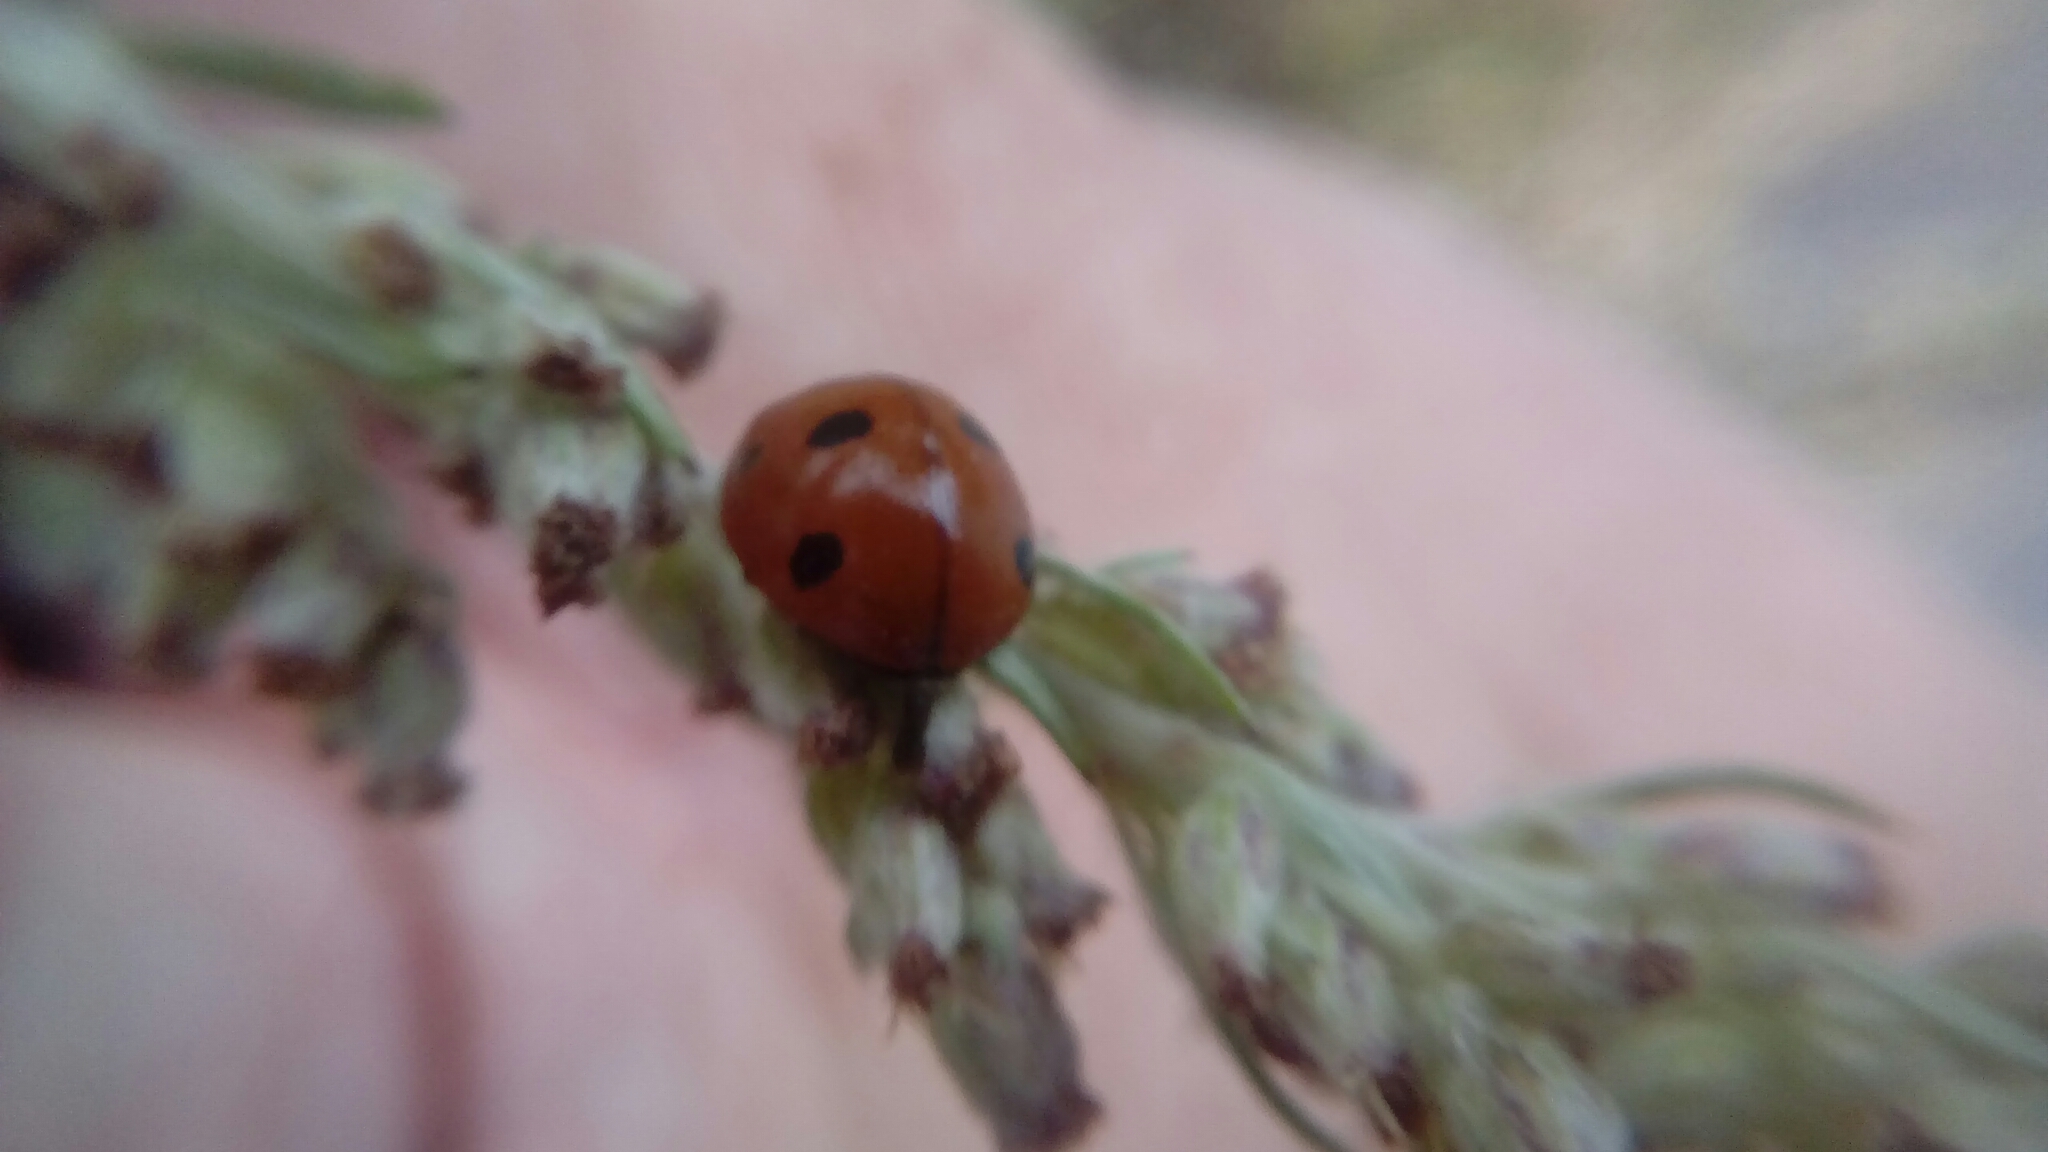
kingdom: Animalia
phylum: Arthropoda
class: Insecta
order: Coleoptera
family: Coccinellidae
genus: Coccinella
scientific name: Coccinella septempunctata
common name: Sevenspotted lady beetle
